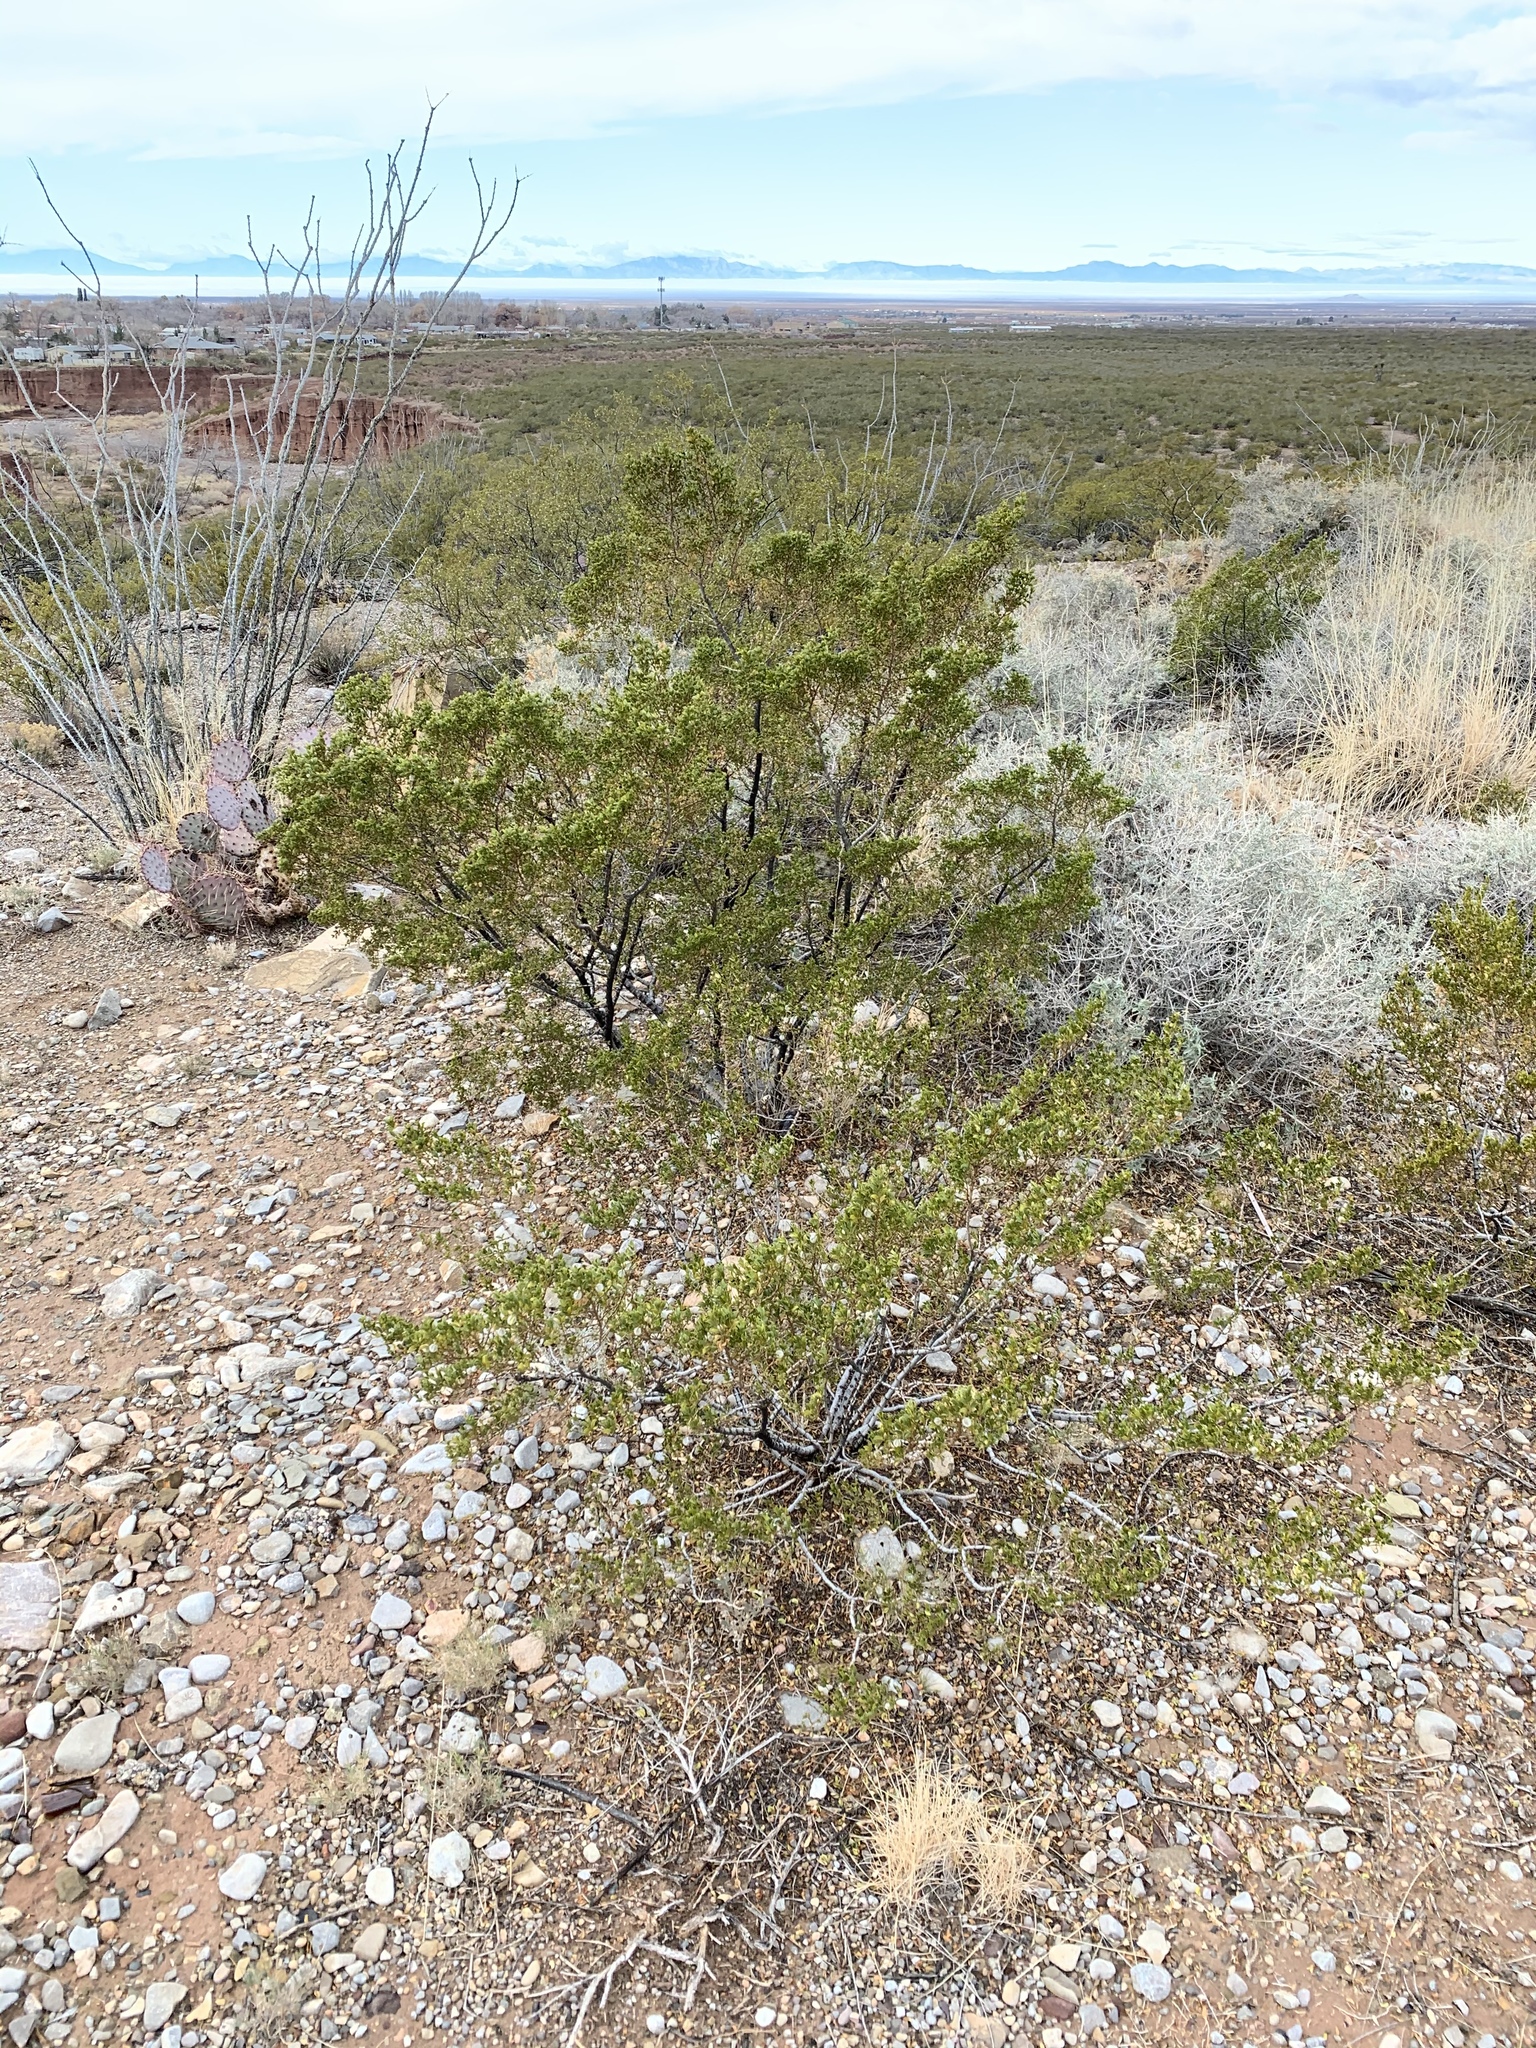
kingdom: Plantae
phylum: Tracheophyta
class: Magnoliopsida
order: Zygophyllales
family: Zygophyllaceae
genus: Larrea
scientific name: Larrea tridentata
